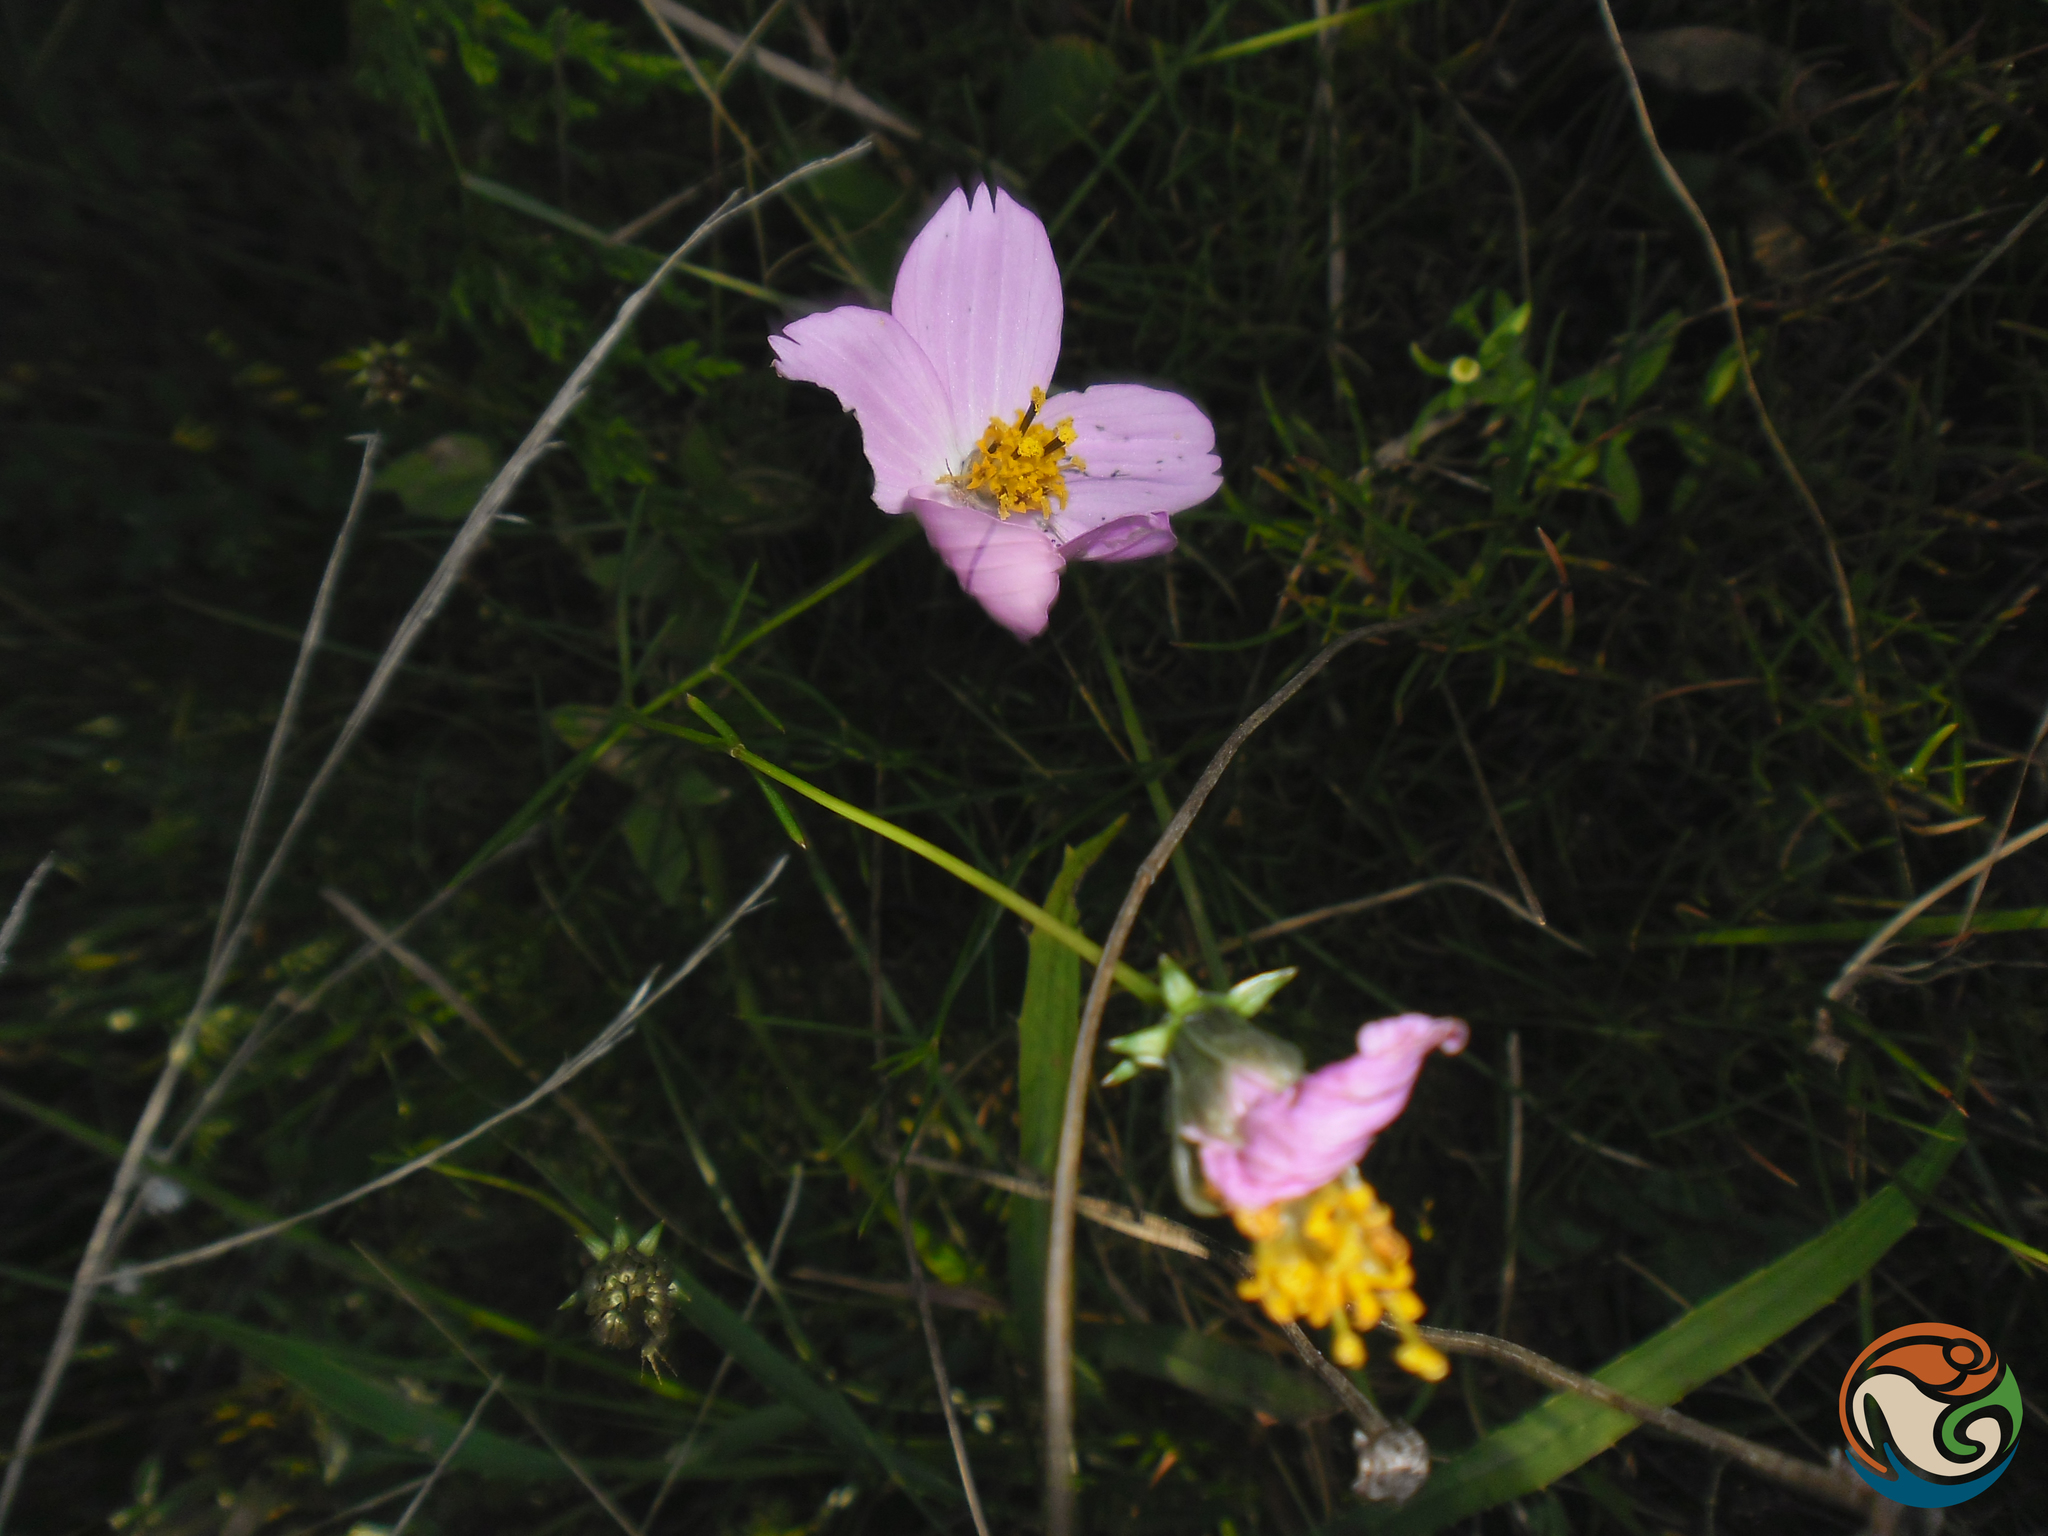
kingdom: Plantae
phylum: Tracheophyta
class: Magnoliopsida
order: Asterales
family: Asteraceae
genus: Cosmos
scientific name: Cosmos crithmifolius
